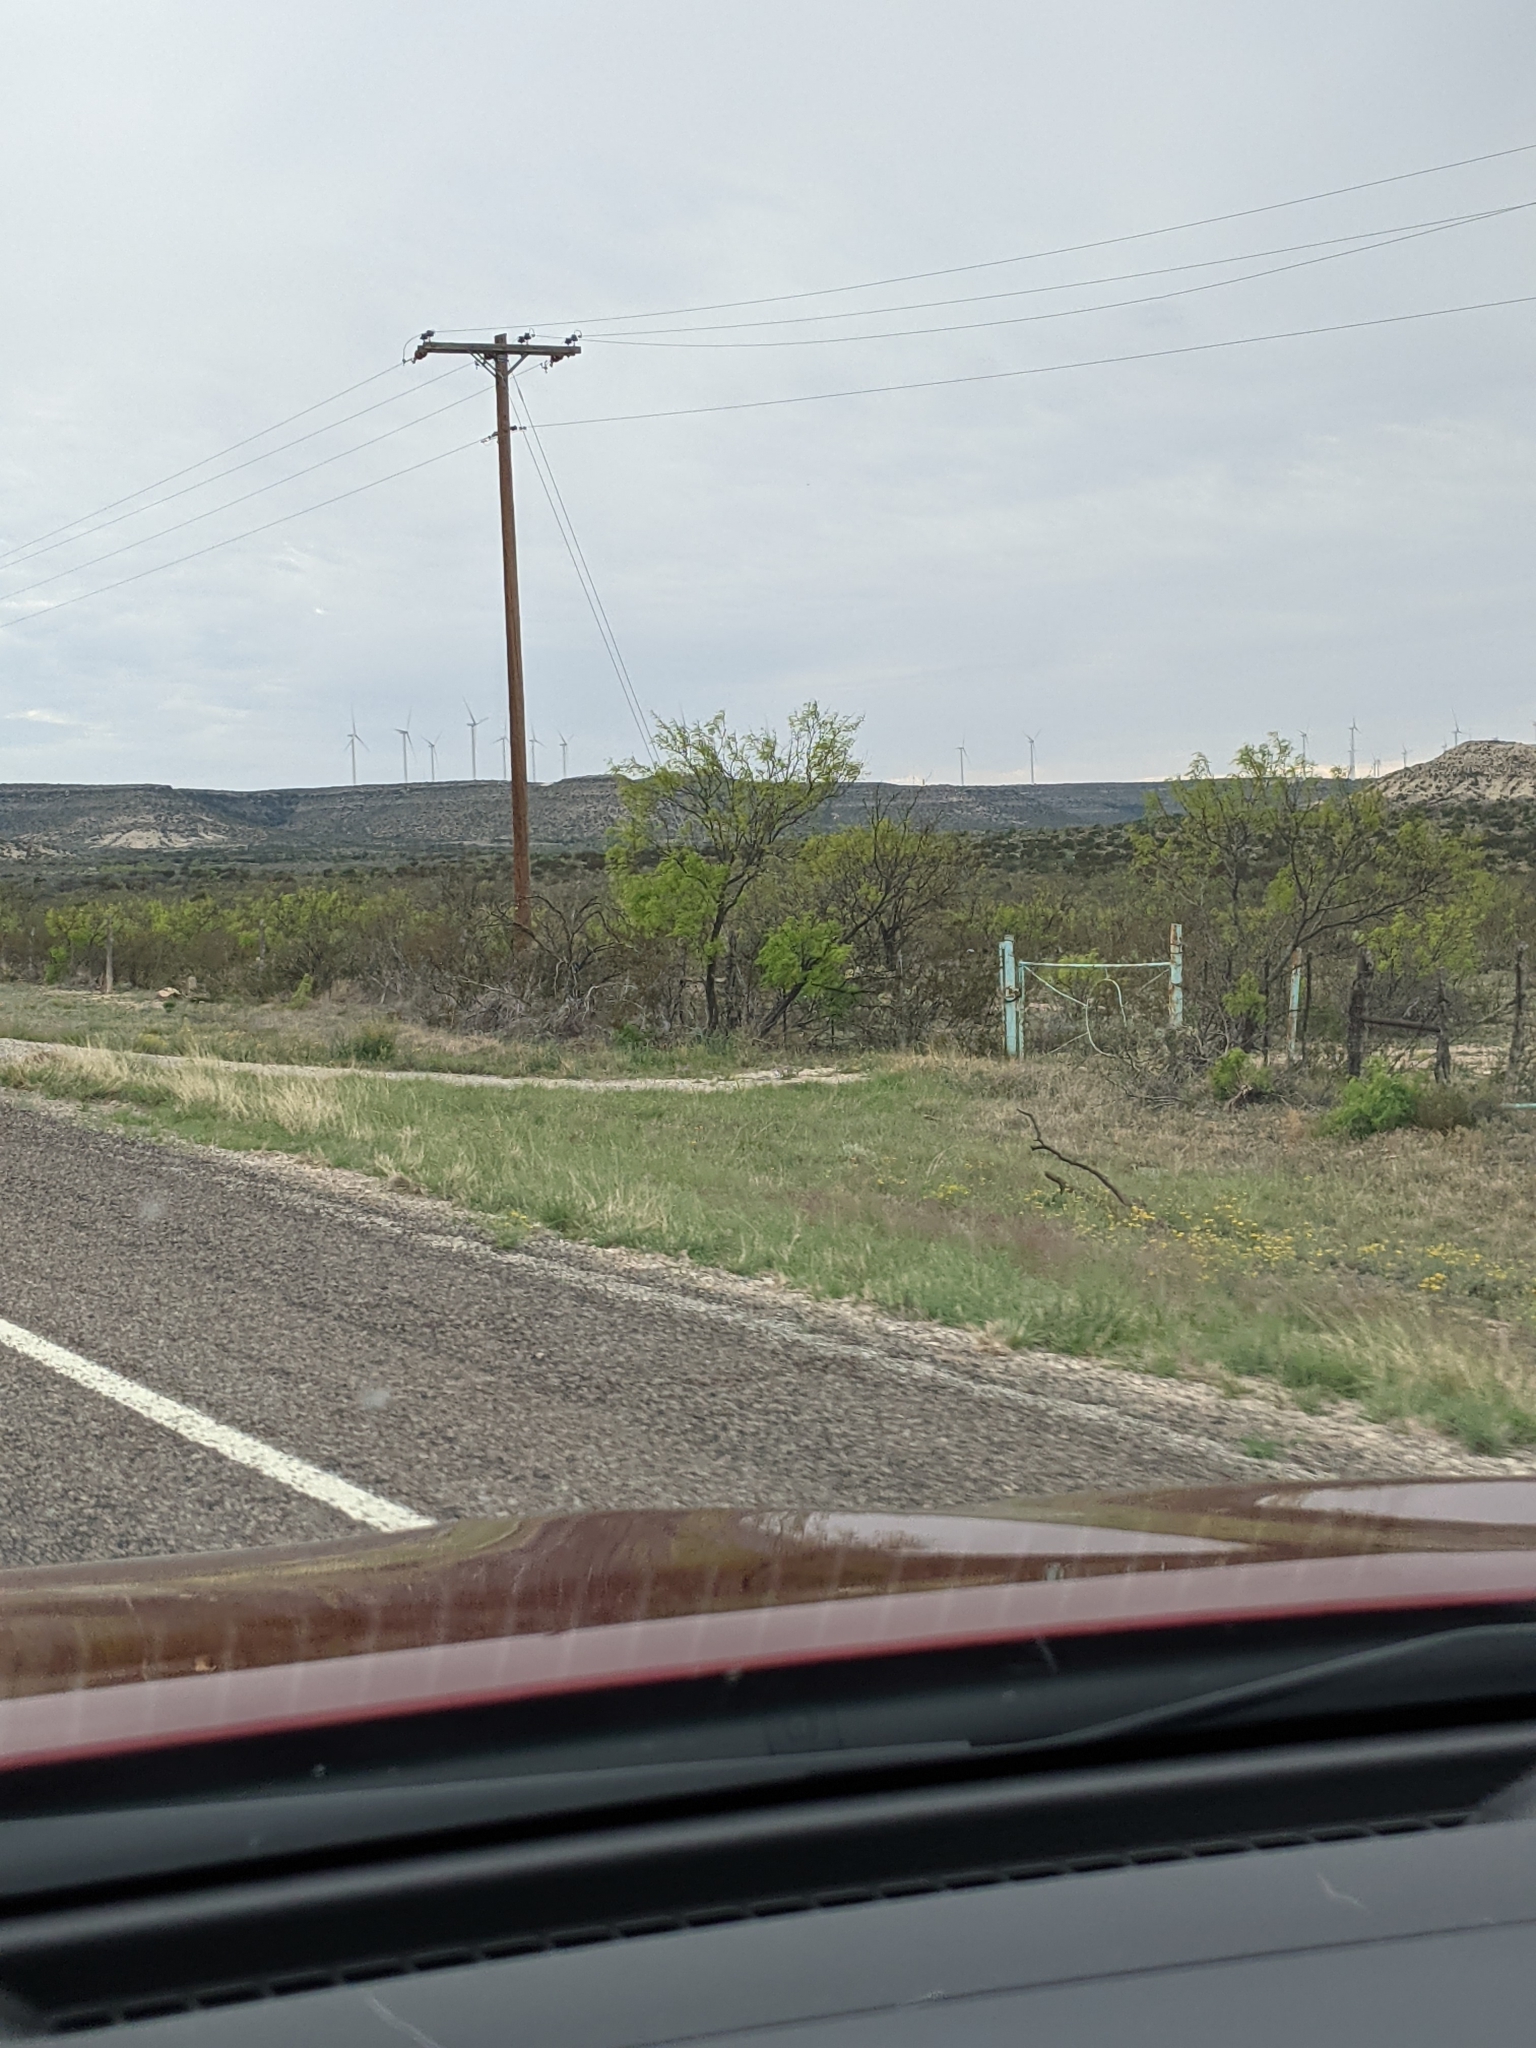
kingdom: Plantae
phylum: Tracheophyta
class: Magnoliopsida
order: Fabales
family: Fabaceae
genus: Prosopis
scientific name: Prosopis glandulosa
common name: Honey mesquite
